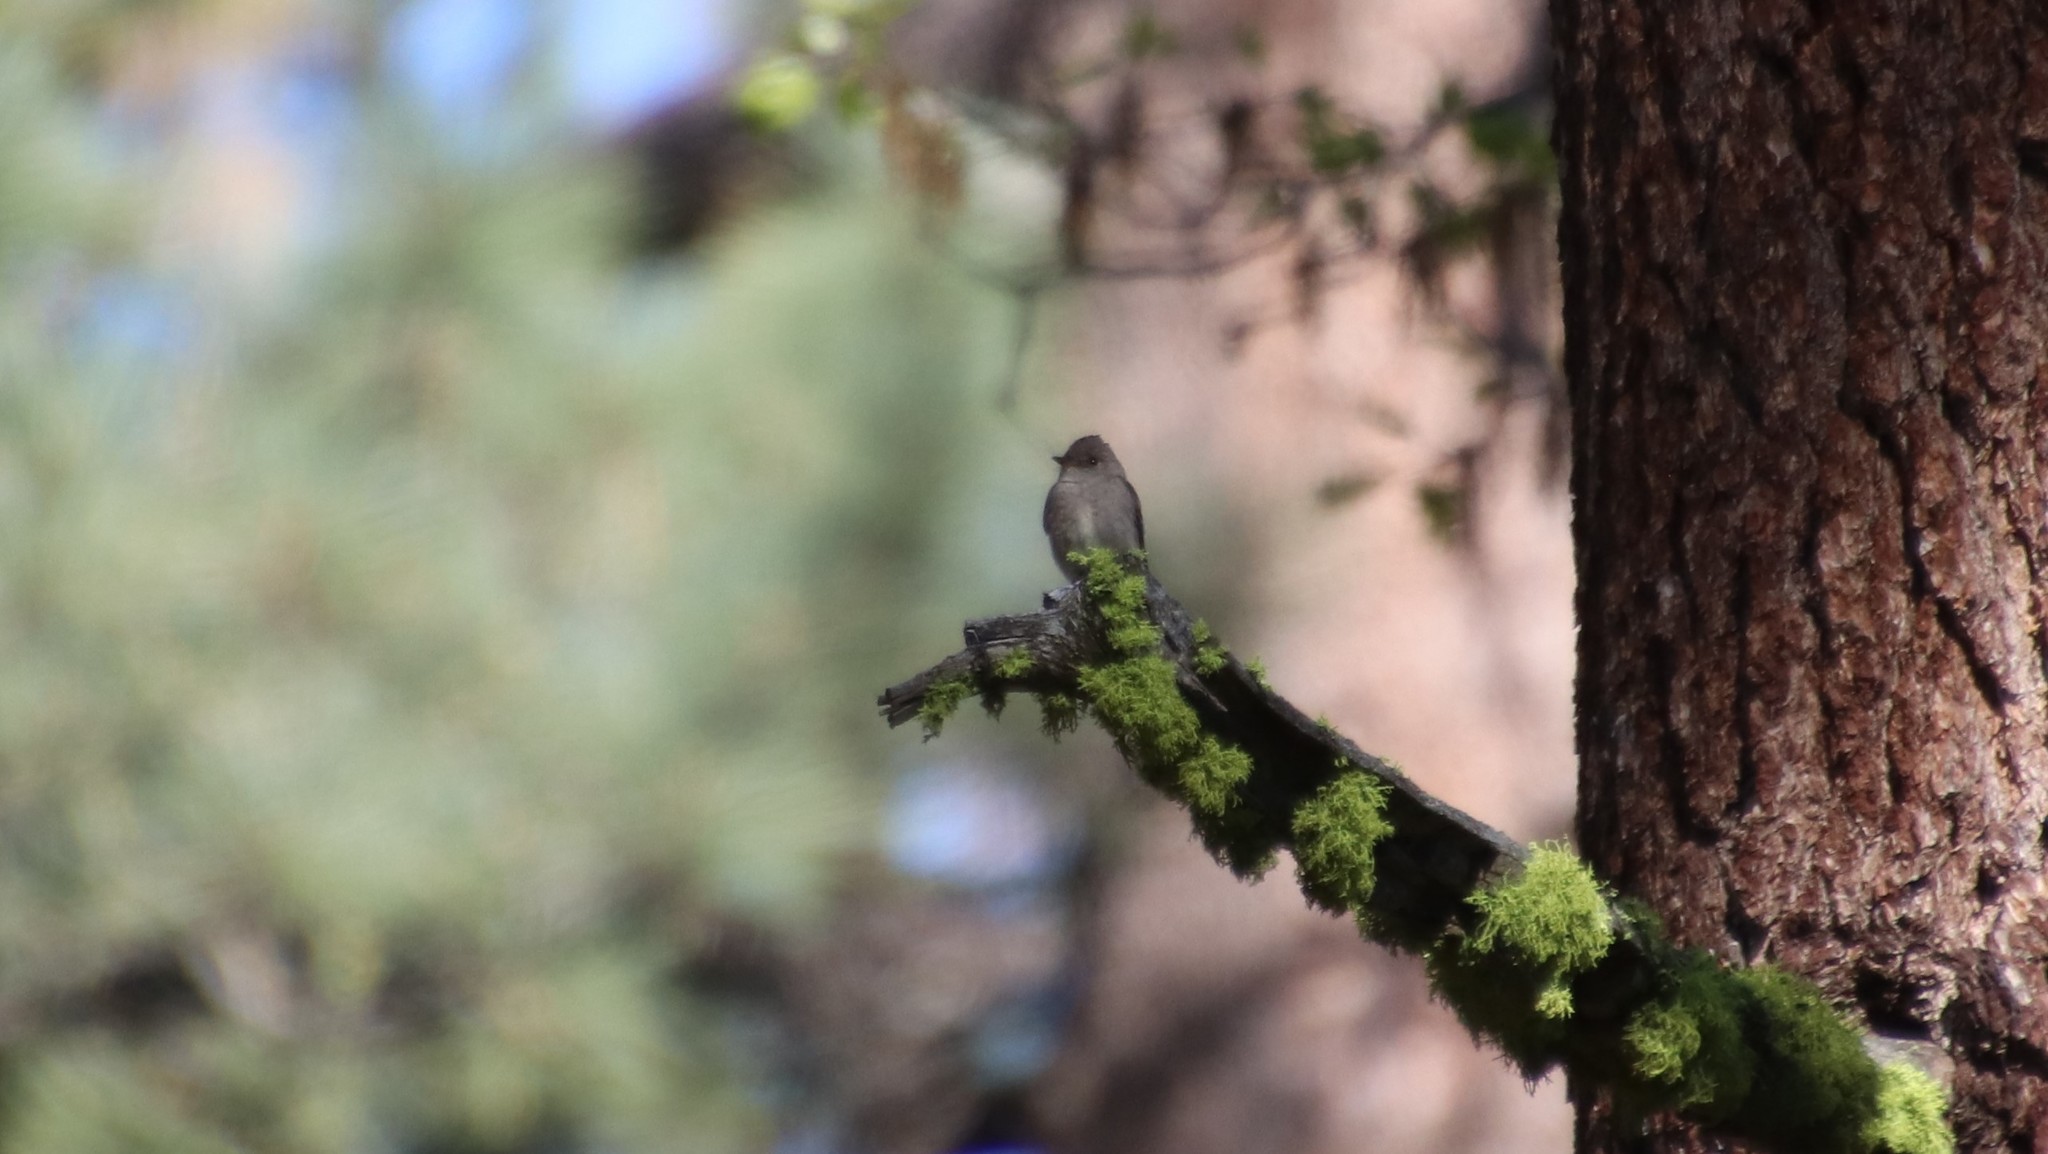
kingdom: Animalia
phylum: Chordata
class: Aves
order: Passeriformes
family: Tyrannidae
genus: Contopus
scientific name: Contopus sordidulus
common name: Western wood-pewee
